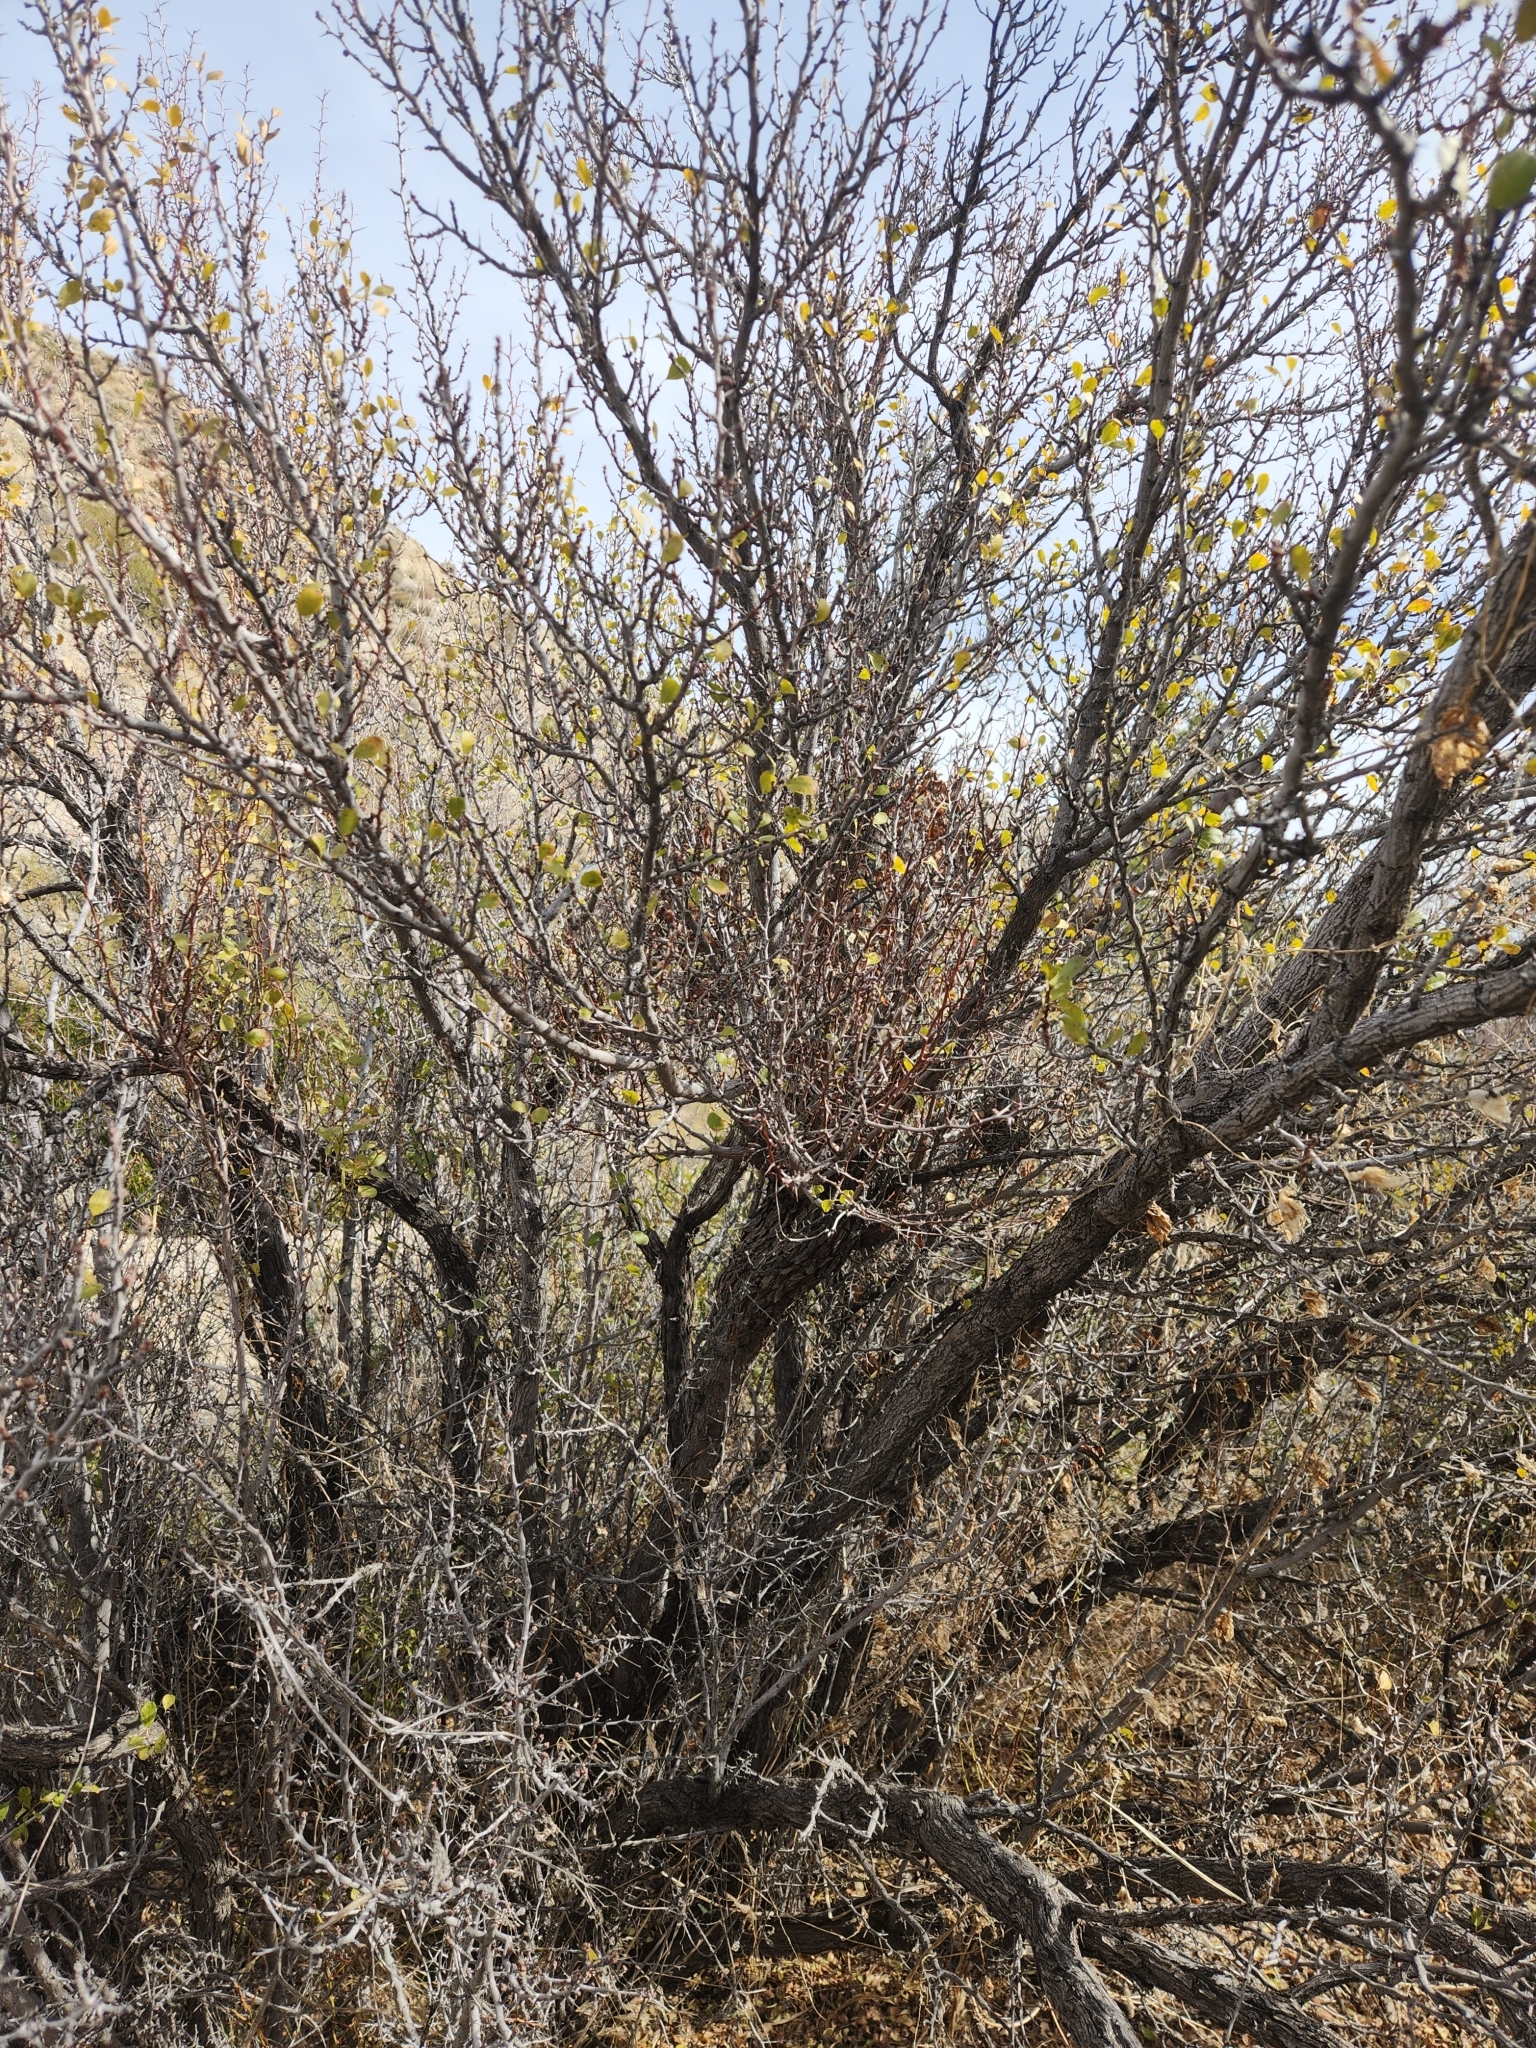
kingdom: Plantae
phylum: Tracheophyta
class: Magnoliopsida
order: Rosales
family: Rhamnaceae
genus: Pseudoziziphus
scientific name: Pseudoziziphus parryi
